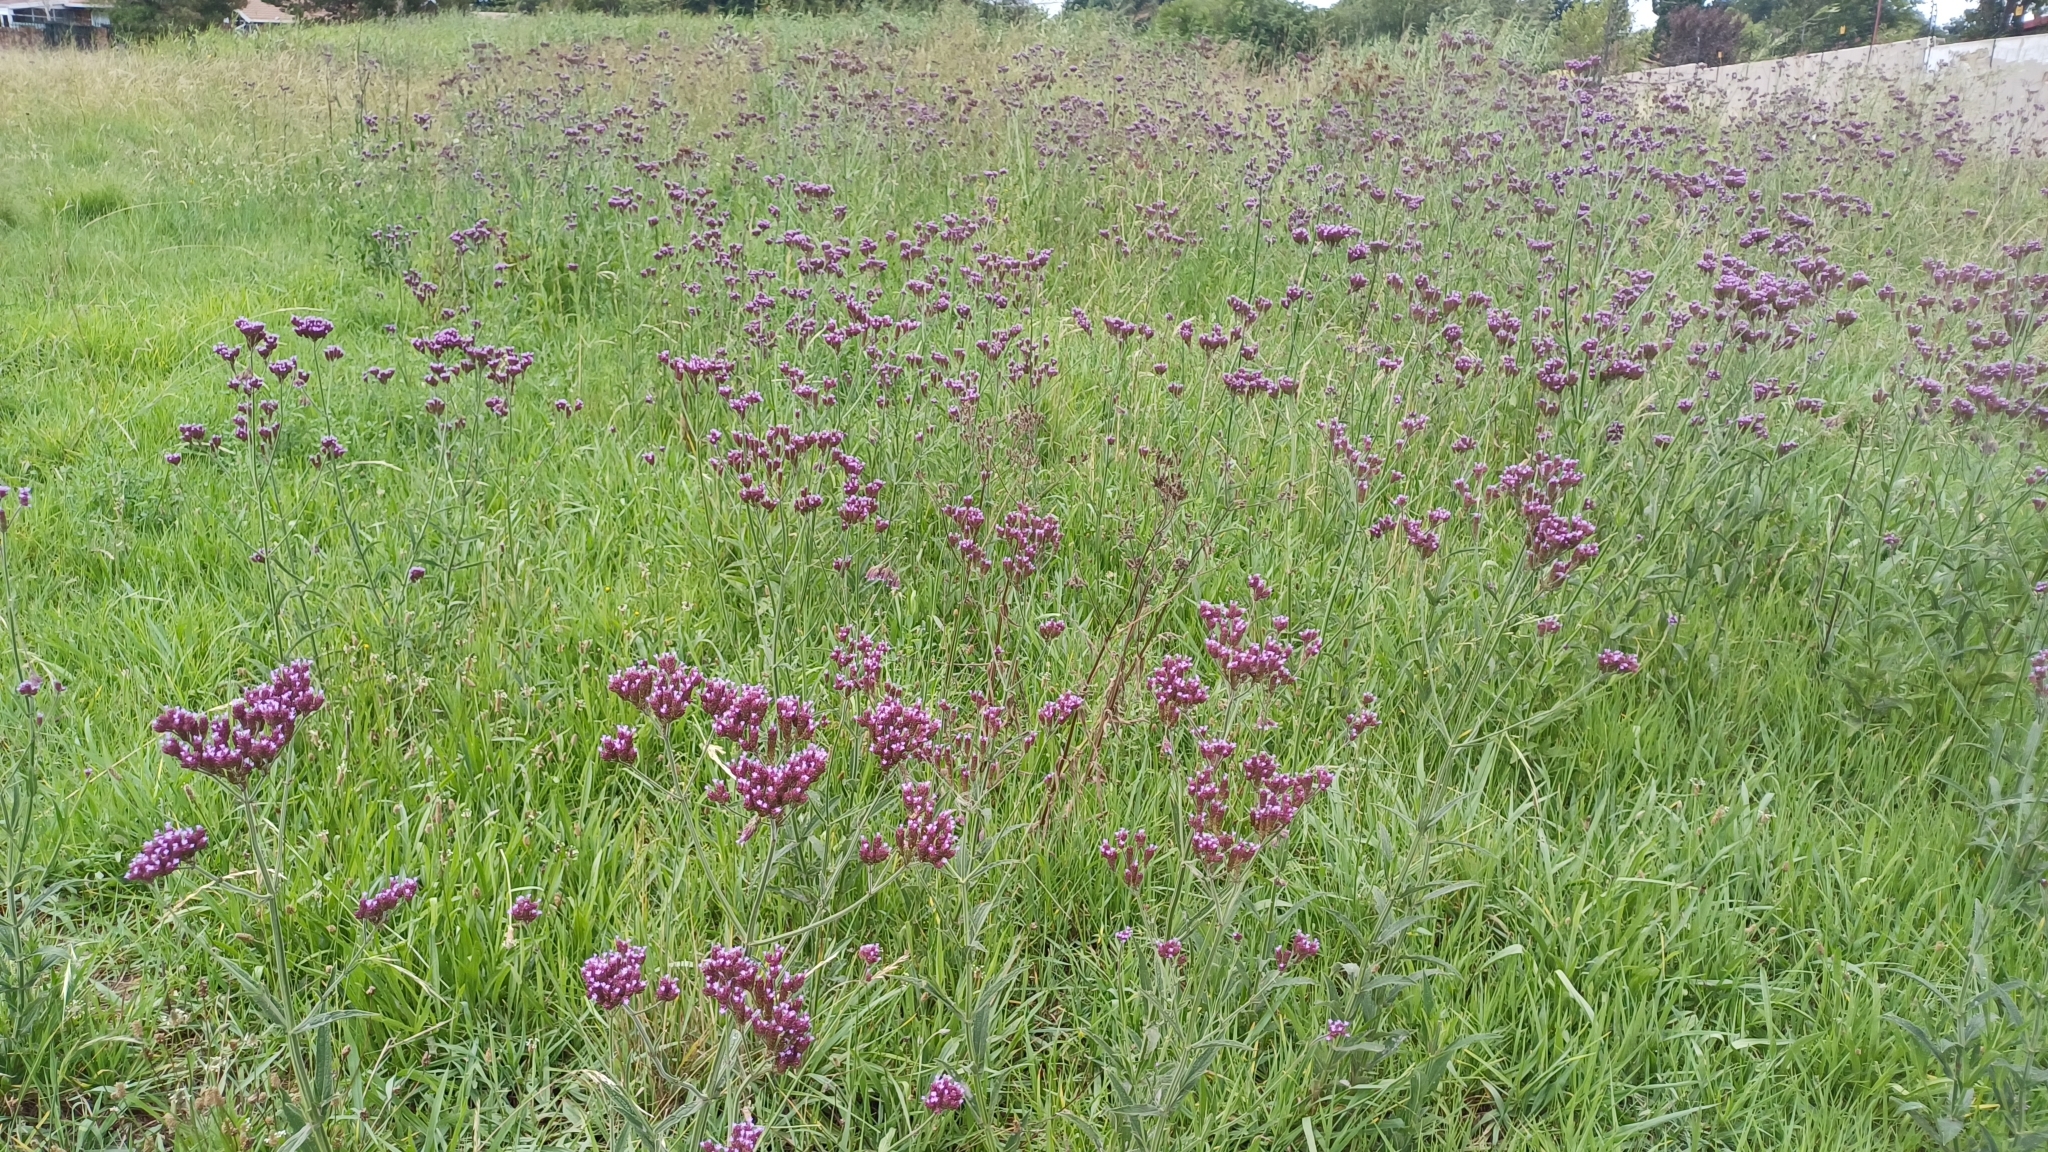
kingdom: Plantae
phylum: Tracheophyta
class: Magnoliopsida
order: Lamiales
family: Verbenaceae
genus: Verbena
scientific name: Verbena incompta
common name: Purpletop vervain
